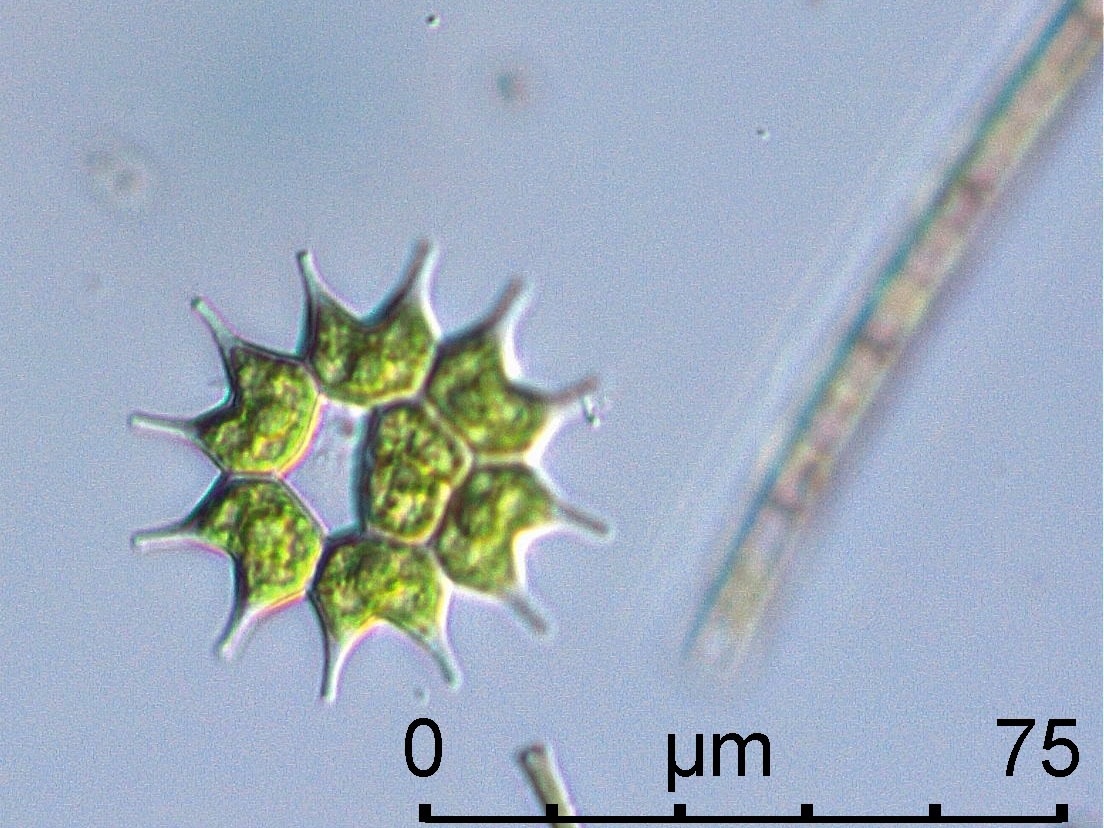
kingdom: Plantae
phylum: Chlorophyta
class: Chlorophyceae
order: Sphaeropleales
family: Hydrodictyaceae
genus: Pseudopediastrum
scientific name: Pseudopediastrum boryanum
